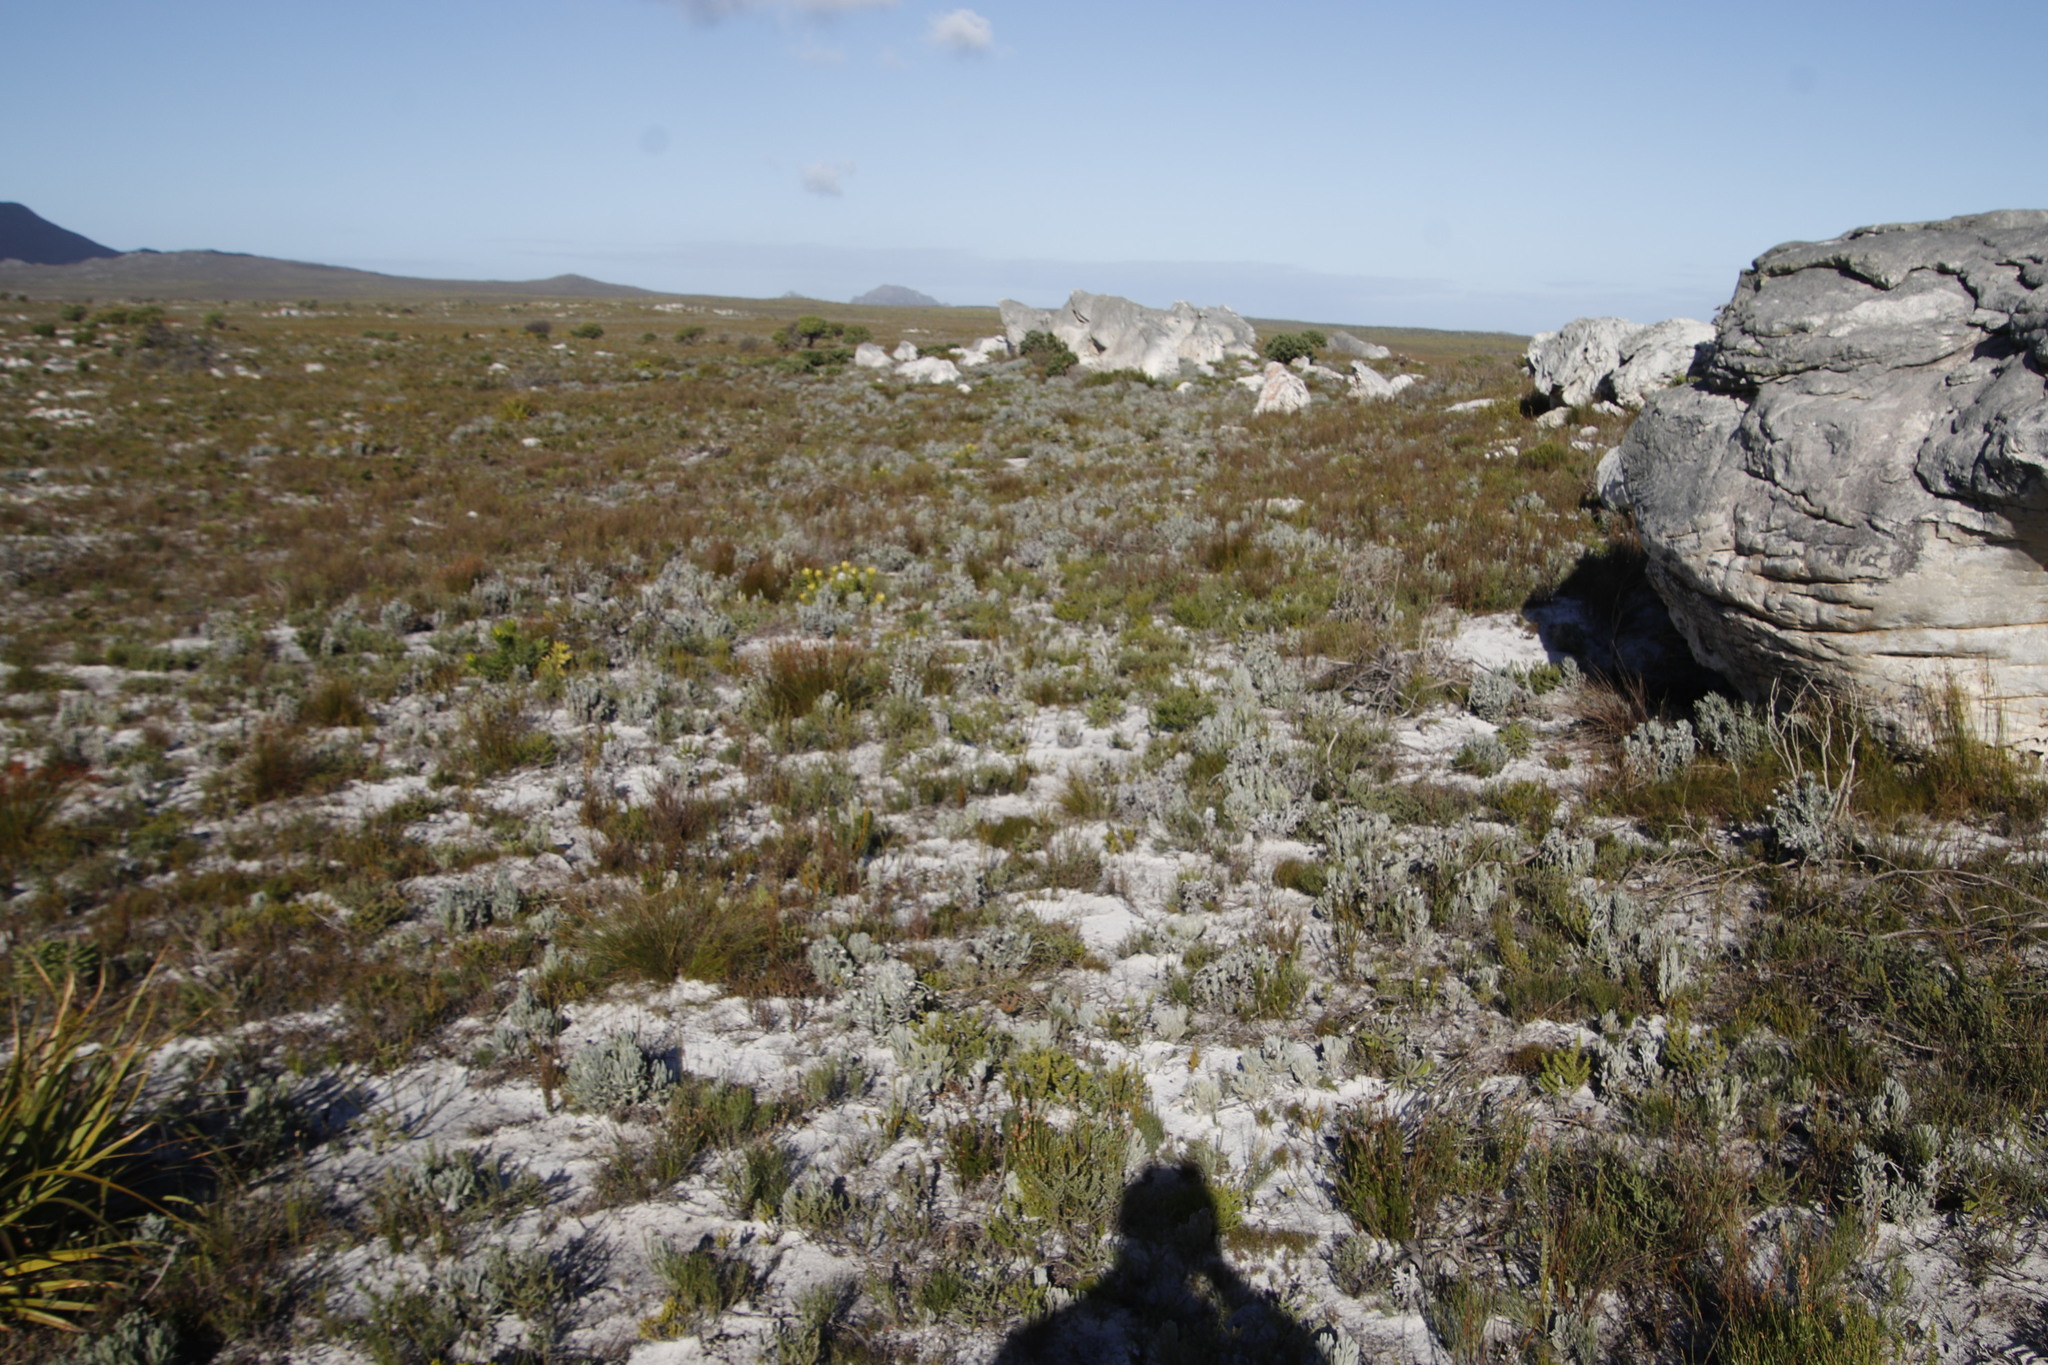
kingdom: Plantae
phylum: Tracheophyta
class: Magnoliopsida
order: Asterales
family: Asteraceae
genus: Syncarpha
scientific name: Syncarpha vestita
